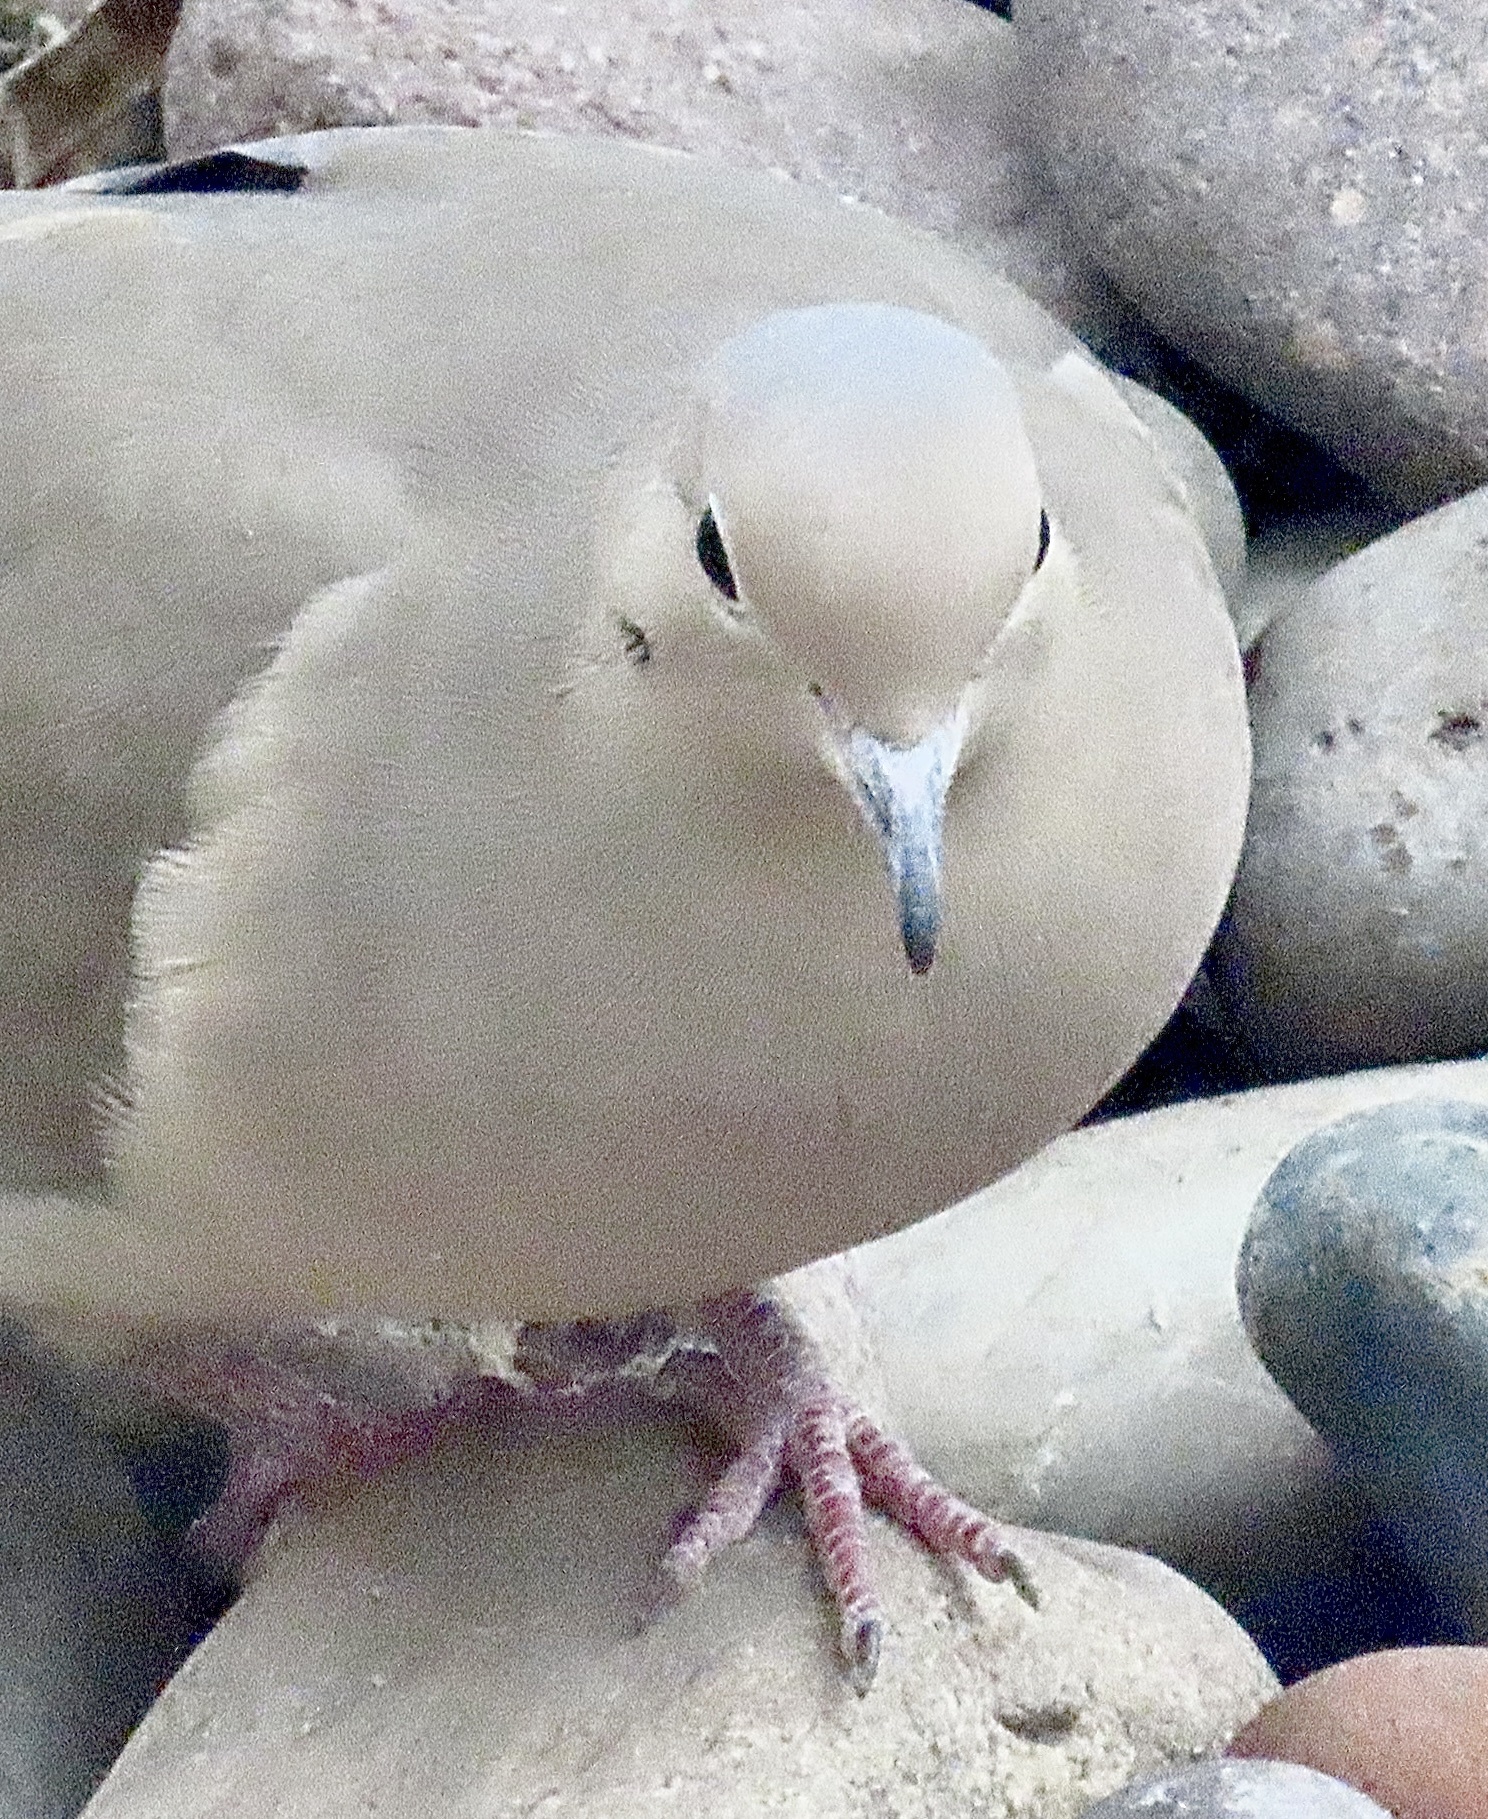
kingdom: Animalia
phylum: Chordata
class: Aves
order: Columbiformes
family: Columbidae
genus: Zenaida
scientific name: Zenaida macroura
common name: Mourning dove
